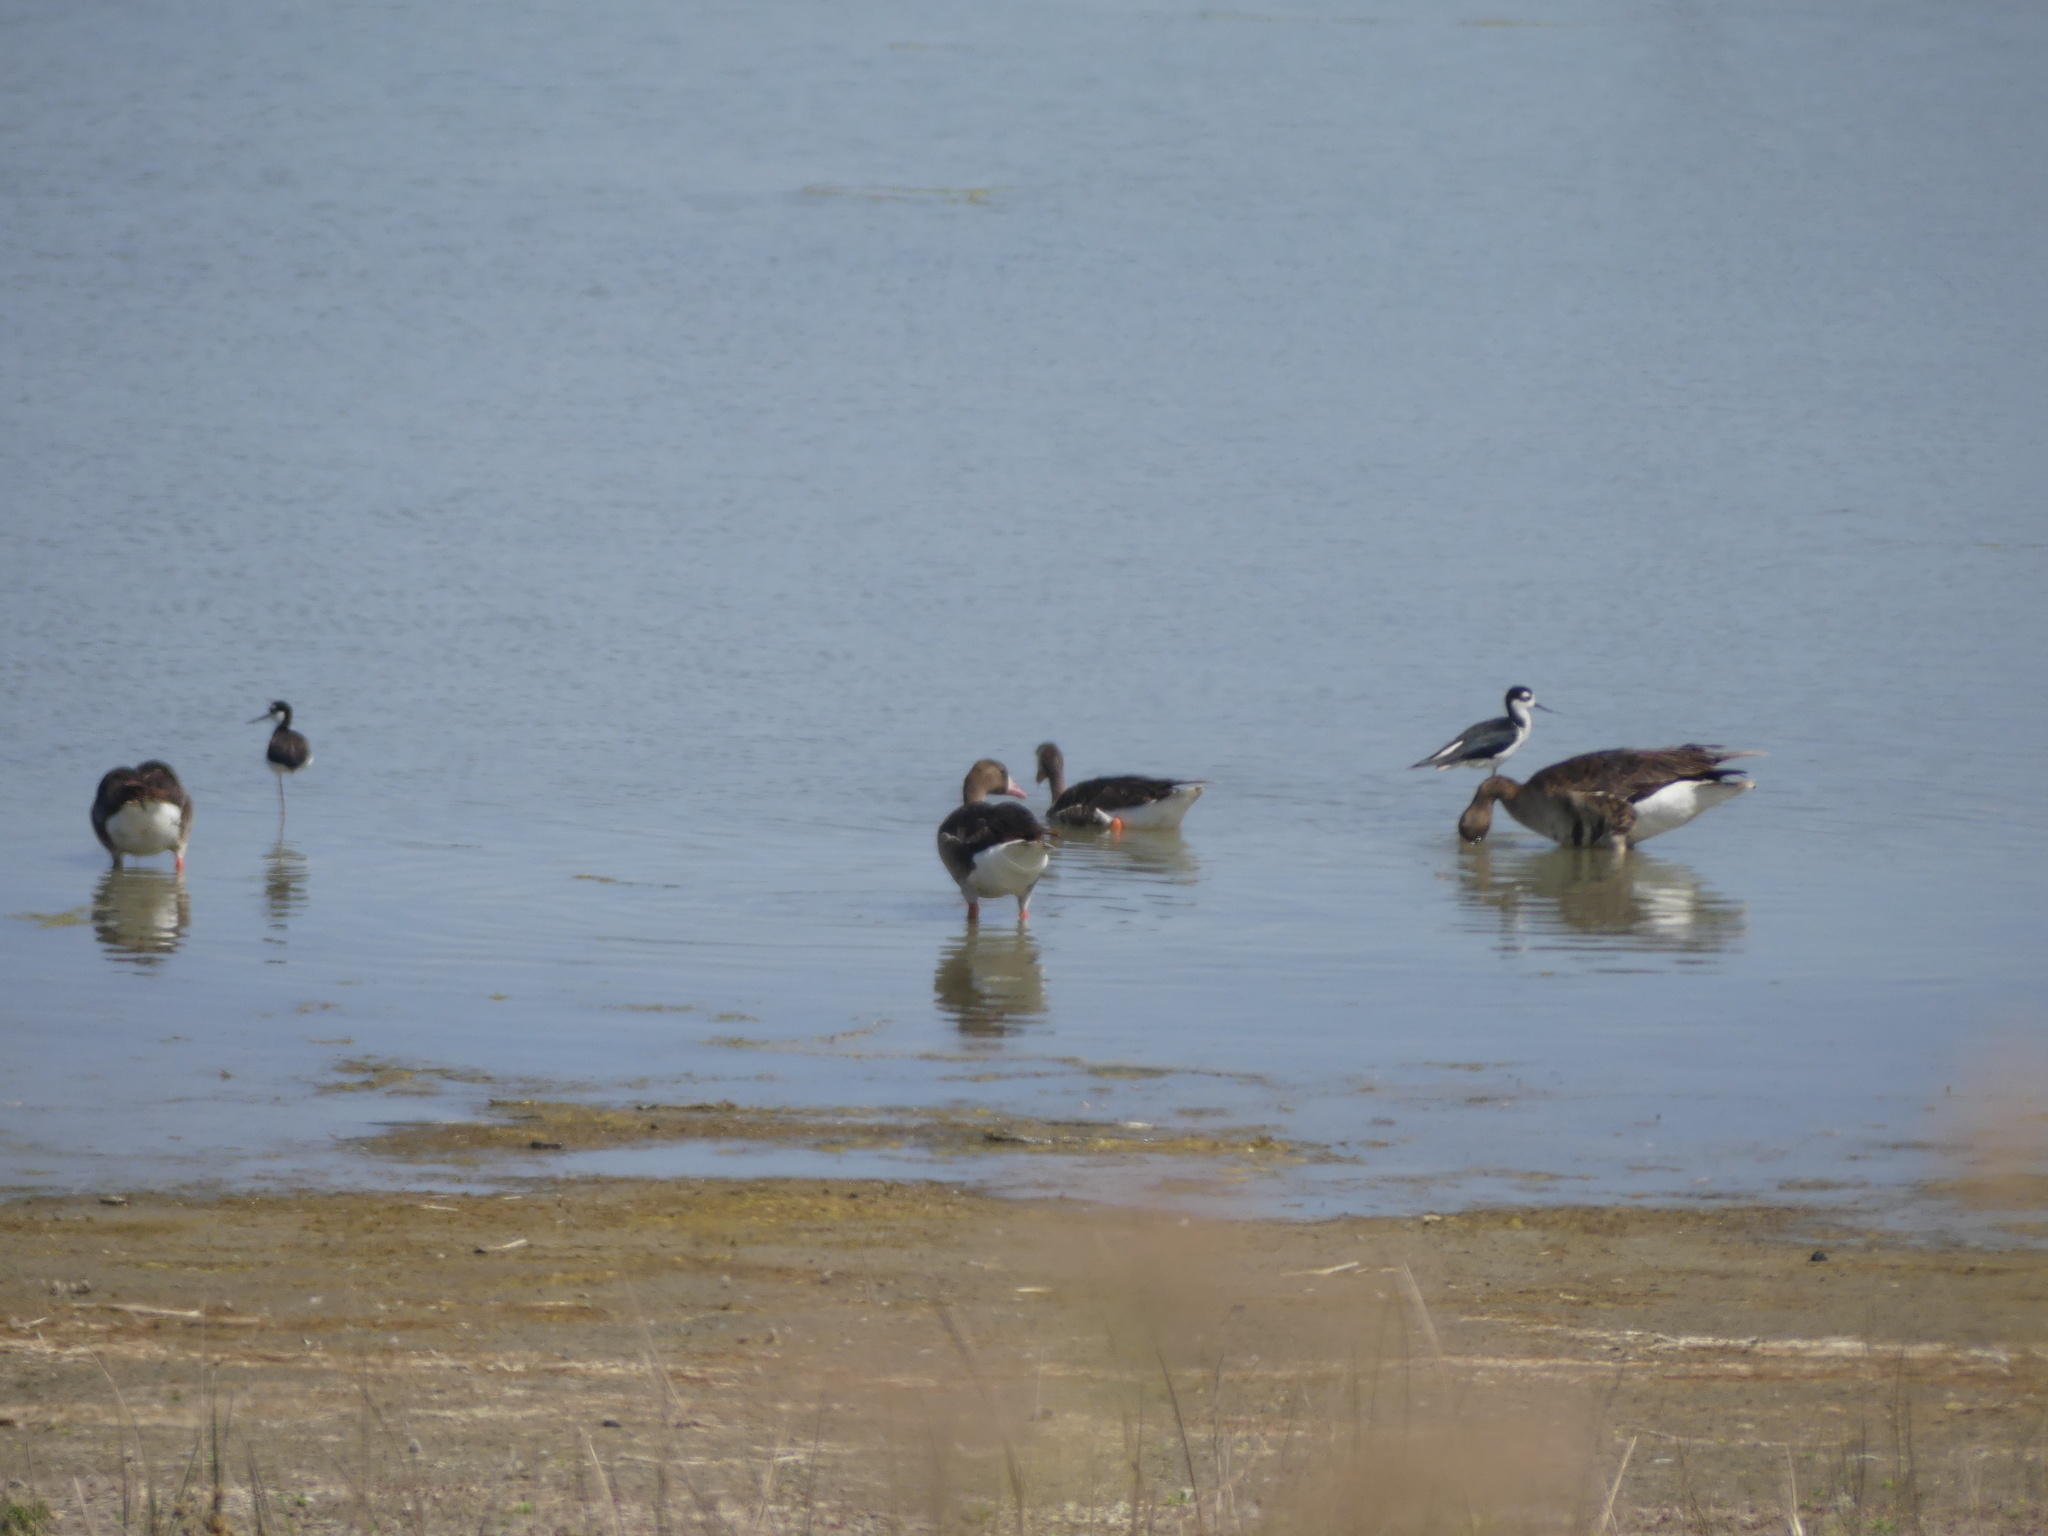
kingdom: Animalia
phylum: Chordata
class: Aves
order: Anseriformes
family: Anatidae
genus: Anser
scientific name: Anser albifrons
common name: Greater white-fronted goose
